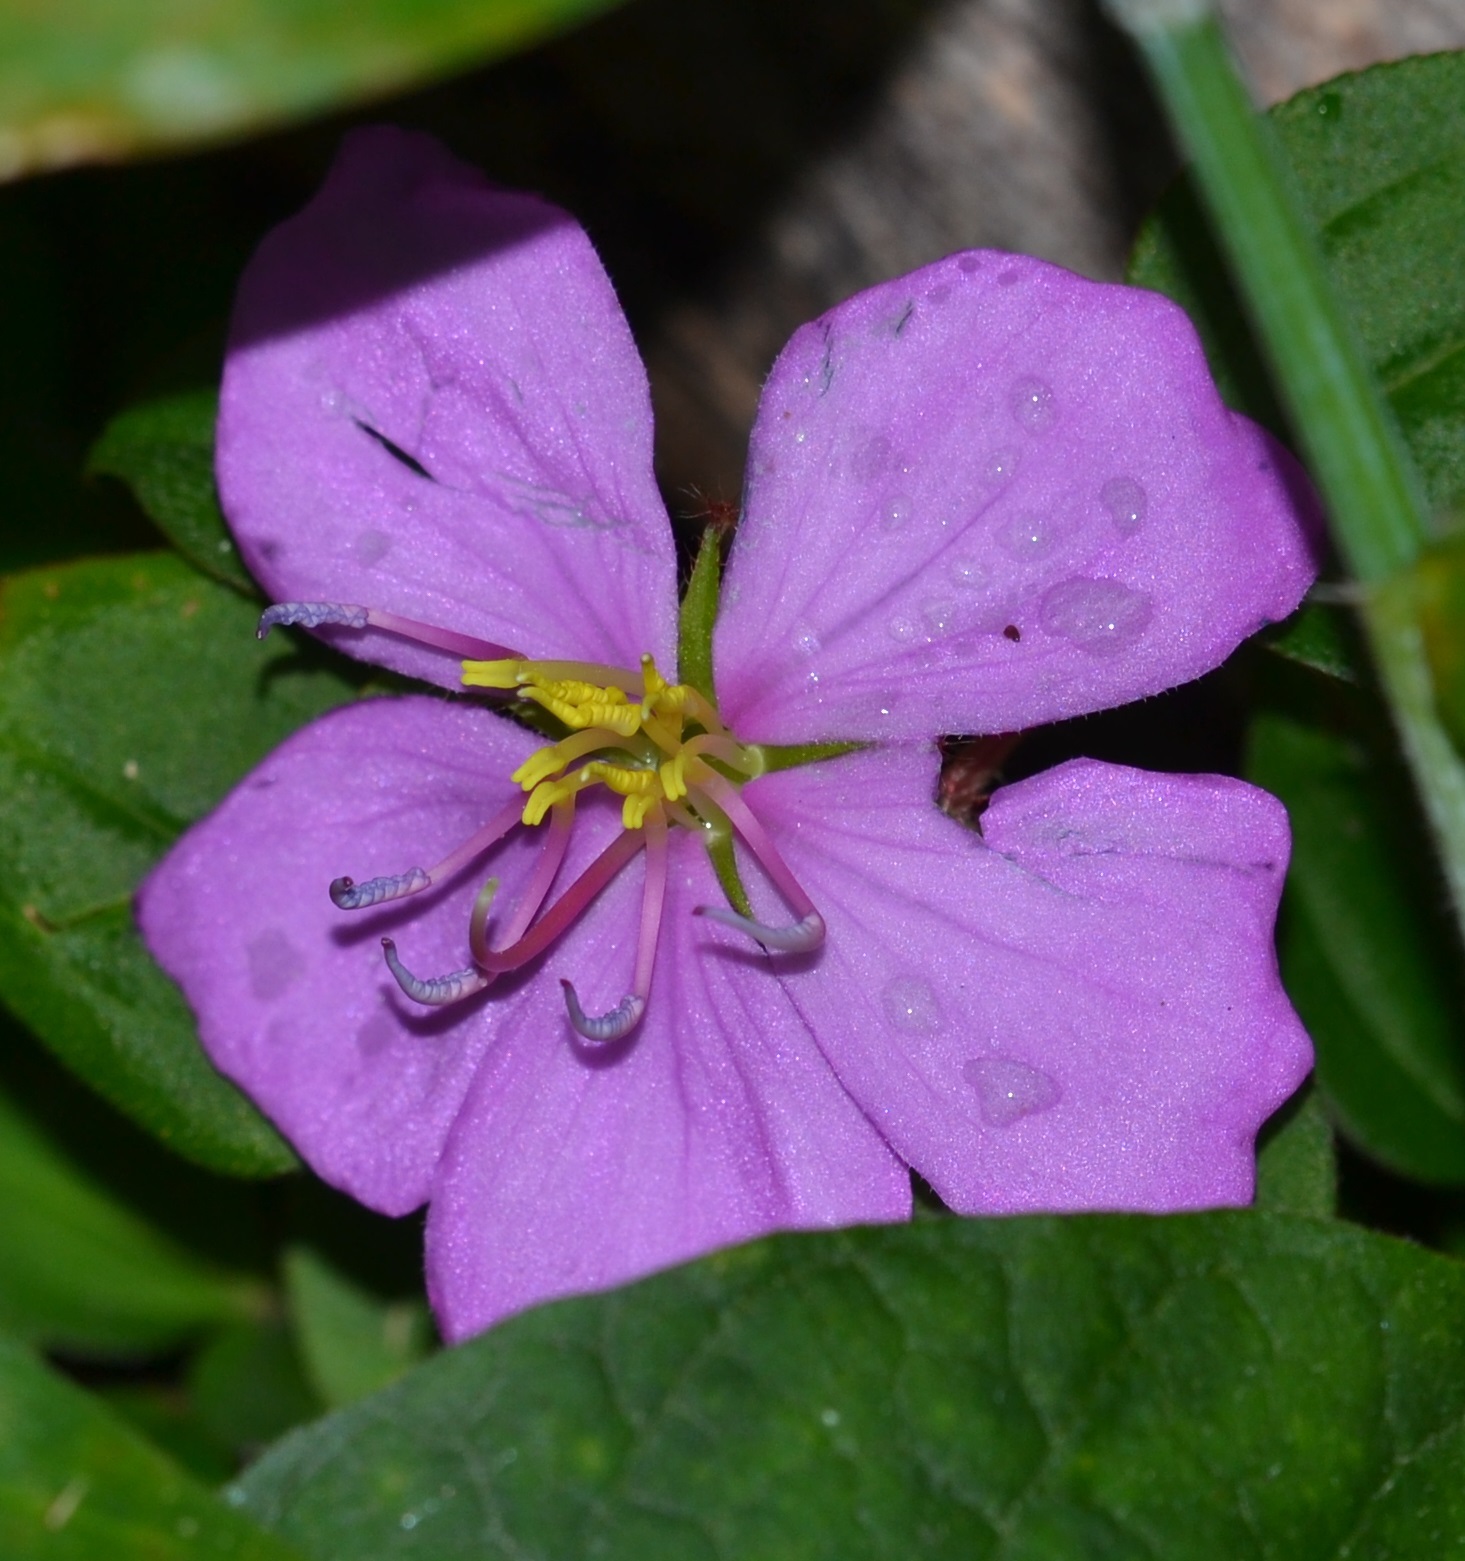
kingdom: Plantae
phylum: Tracheophyta
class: Magnoliopsida
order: Myrtales
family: Melastomataceae
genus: Heterotis
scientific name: Heterotis rotundifolia
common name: Pinklady
